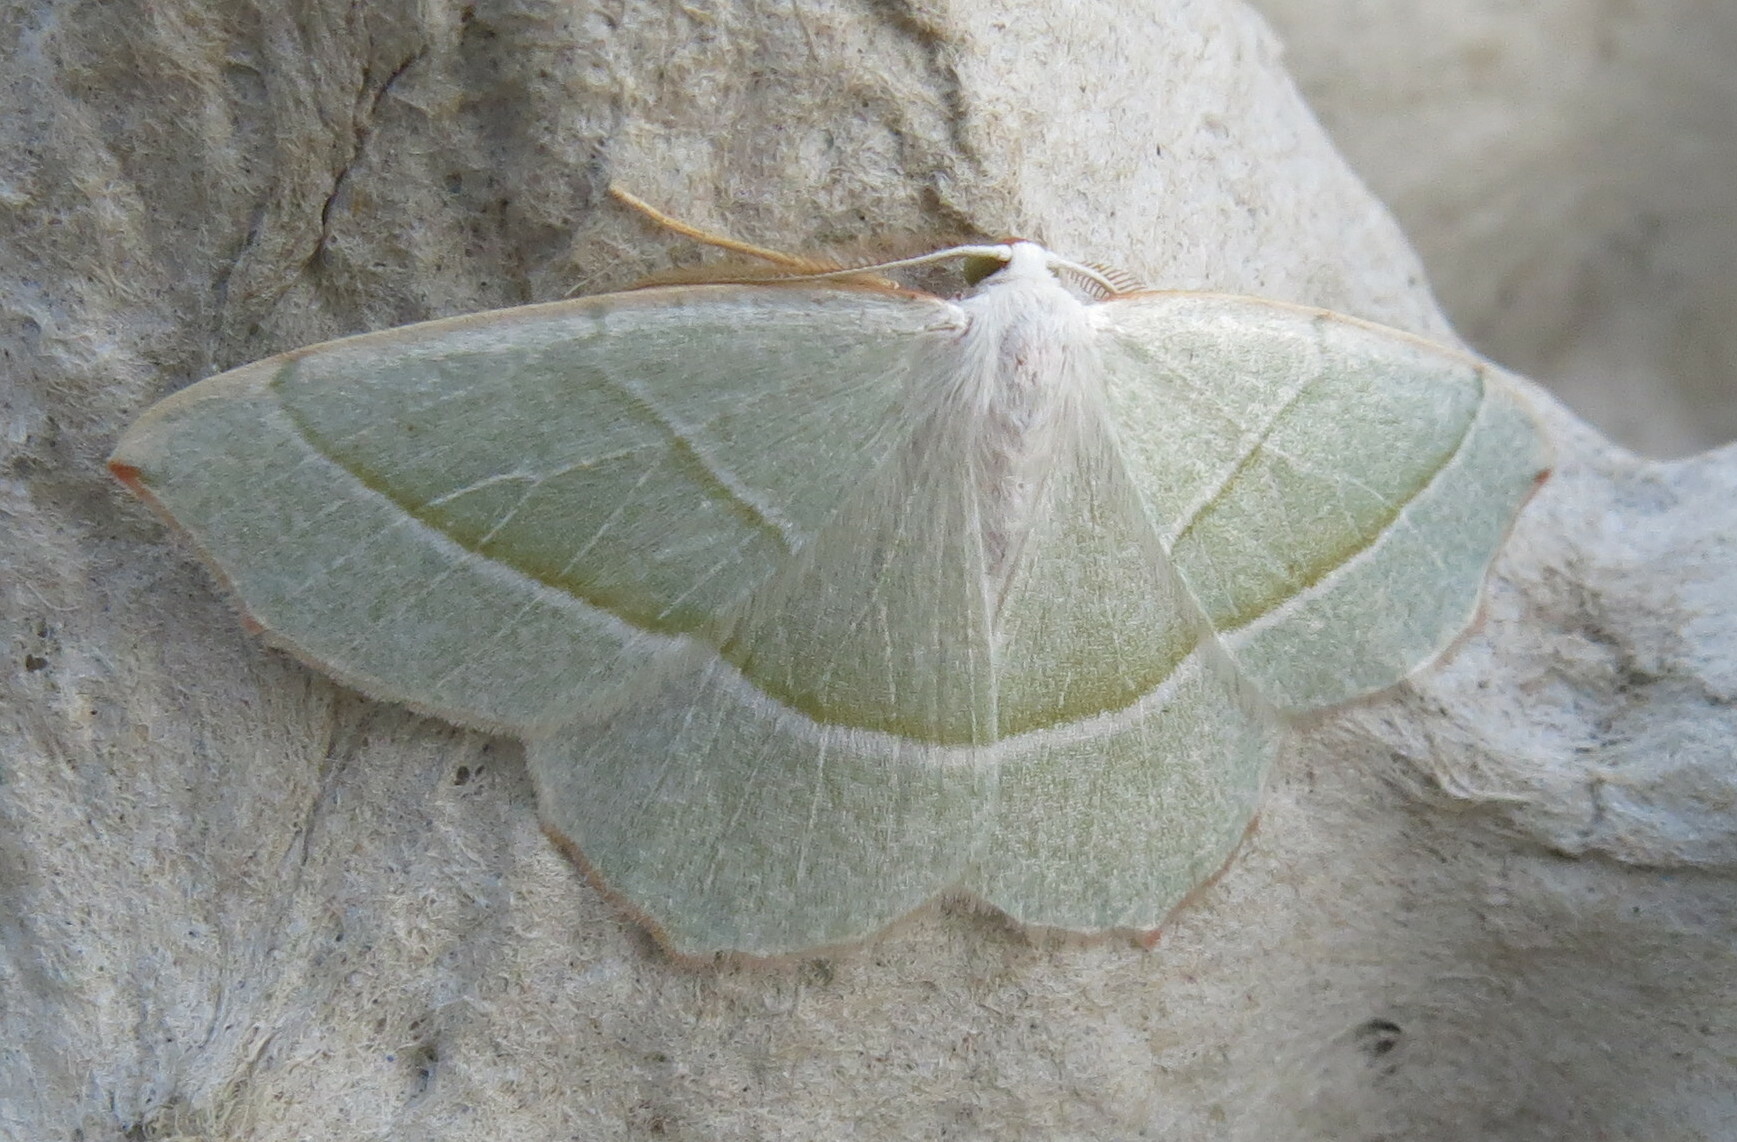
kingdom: Animalia
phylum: Arthropoda
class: Insecta
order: Lepidoptera
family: Geometridae
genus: Campaea
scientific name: Campaea margaritaria
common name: Light emerald
